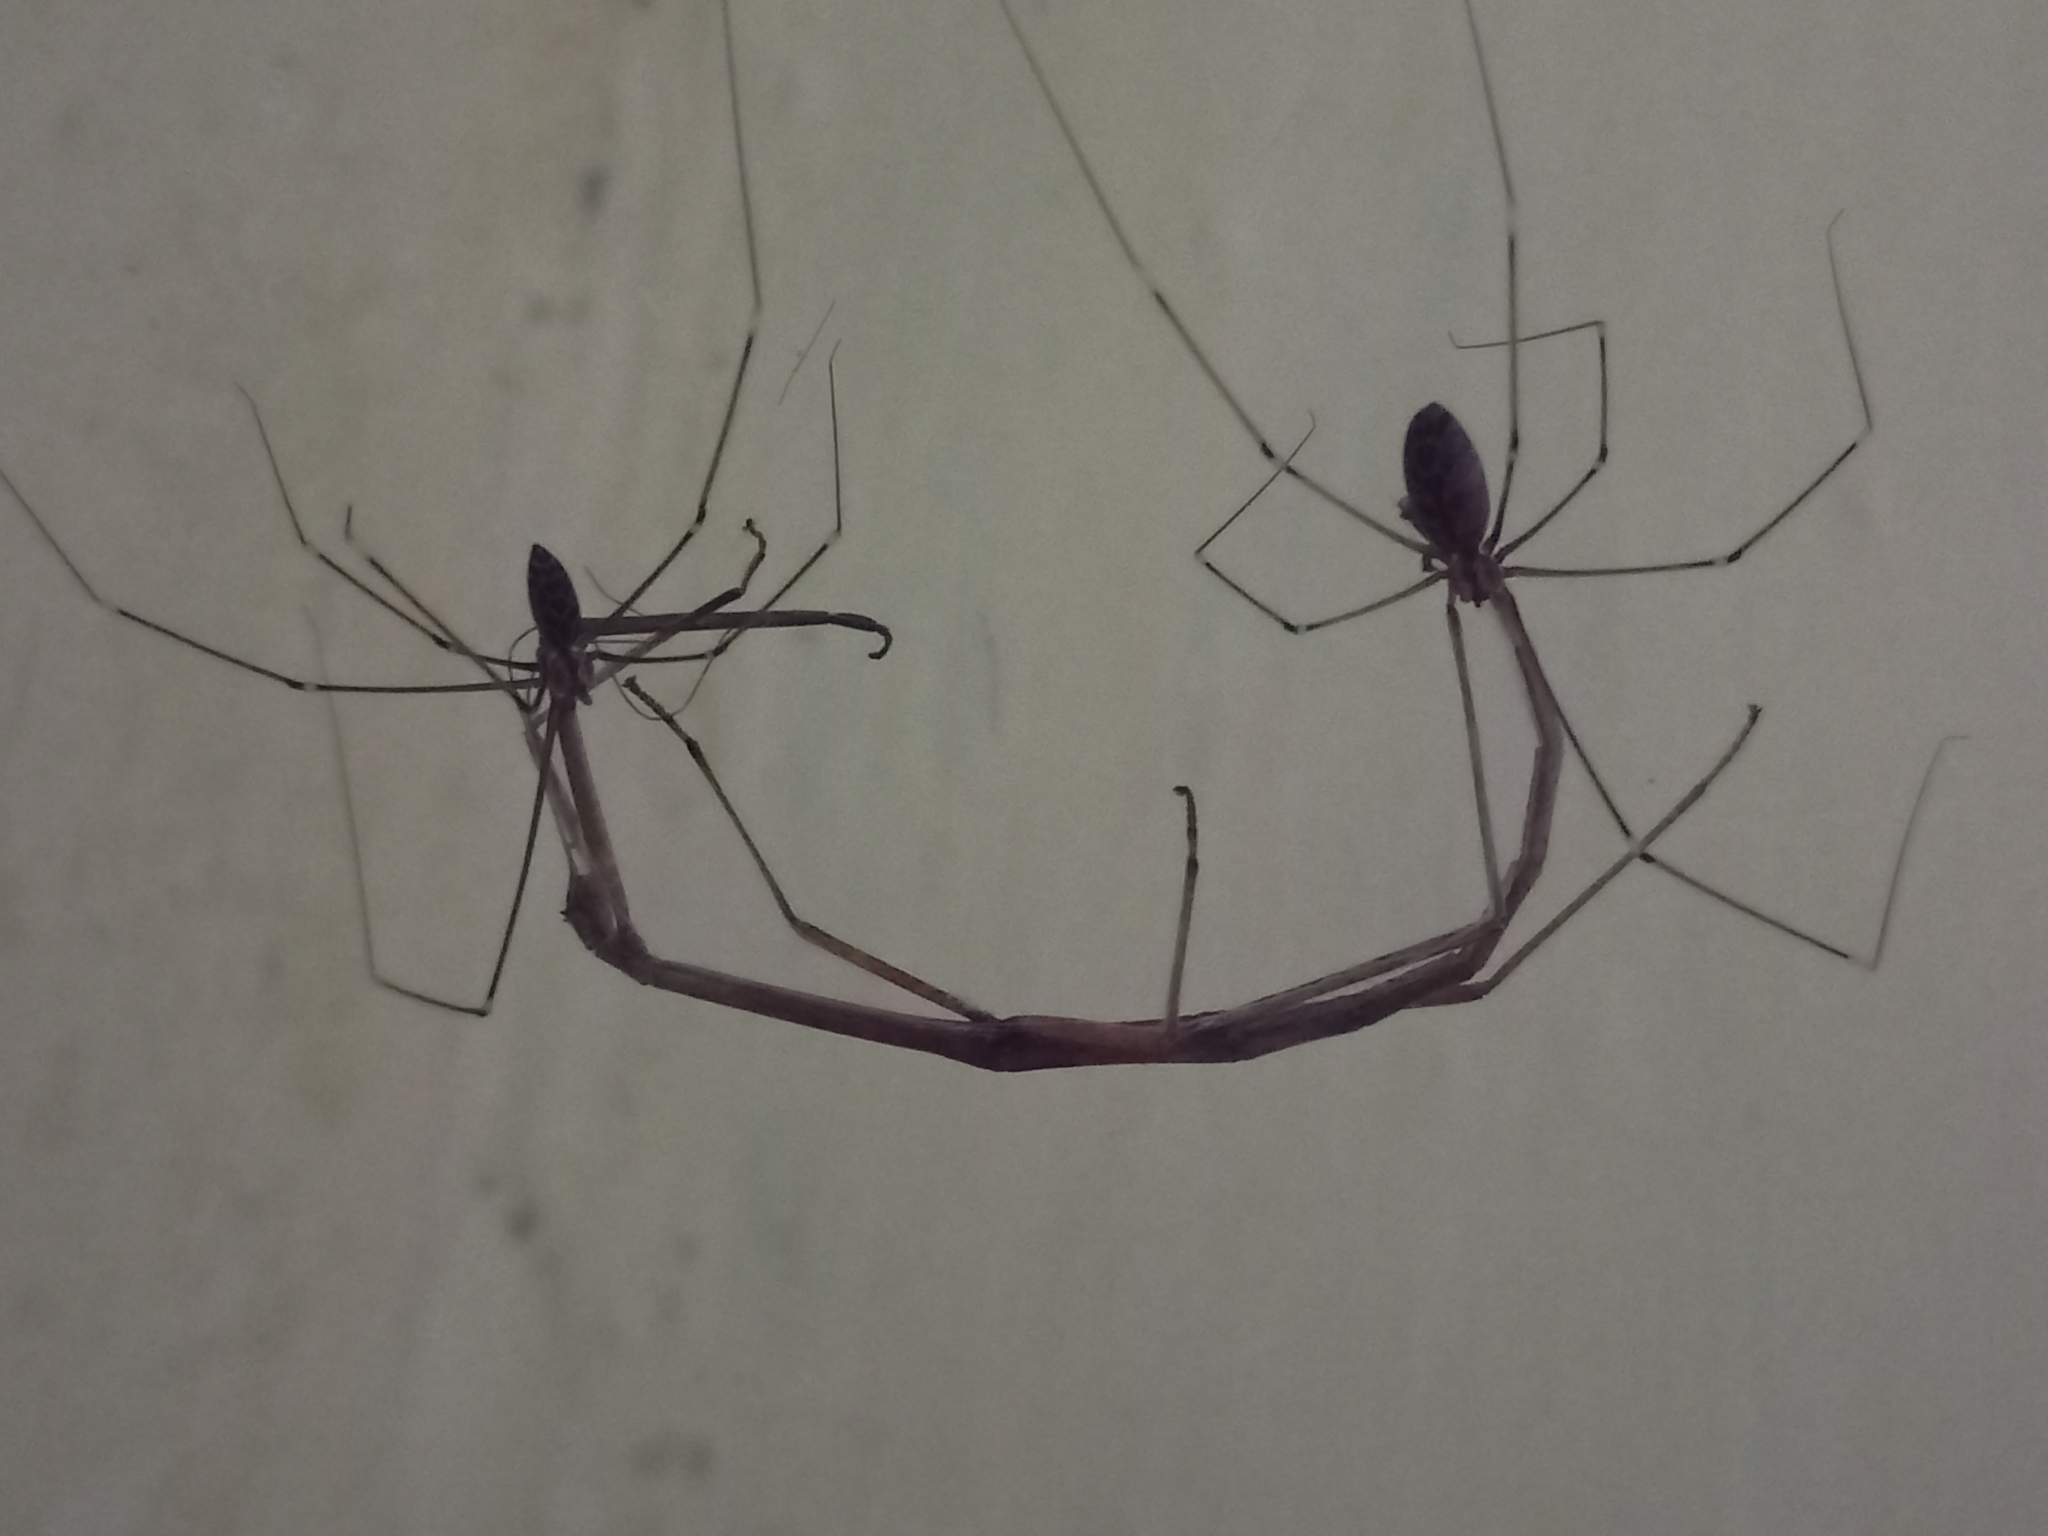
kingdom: Animalia
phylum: Arthropoda
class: Arachnida
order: Araneae
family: Pholcidae
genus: Crossopriza
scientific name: Crossopriza lyoni
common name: Cellar spiders
